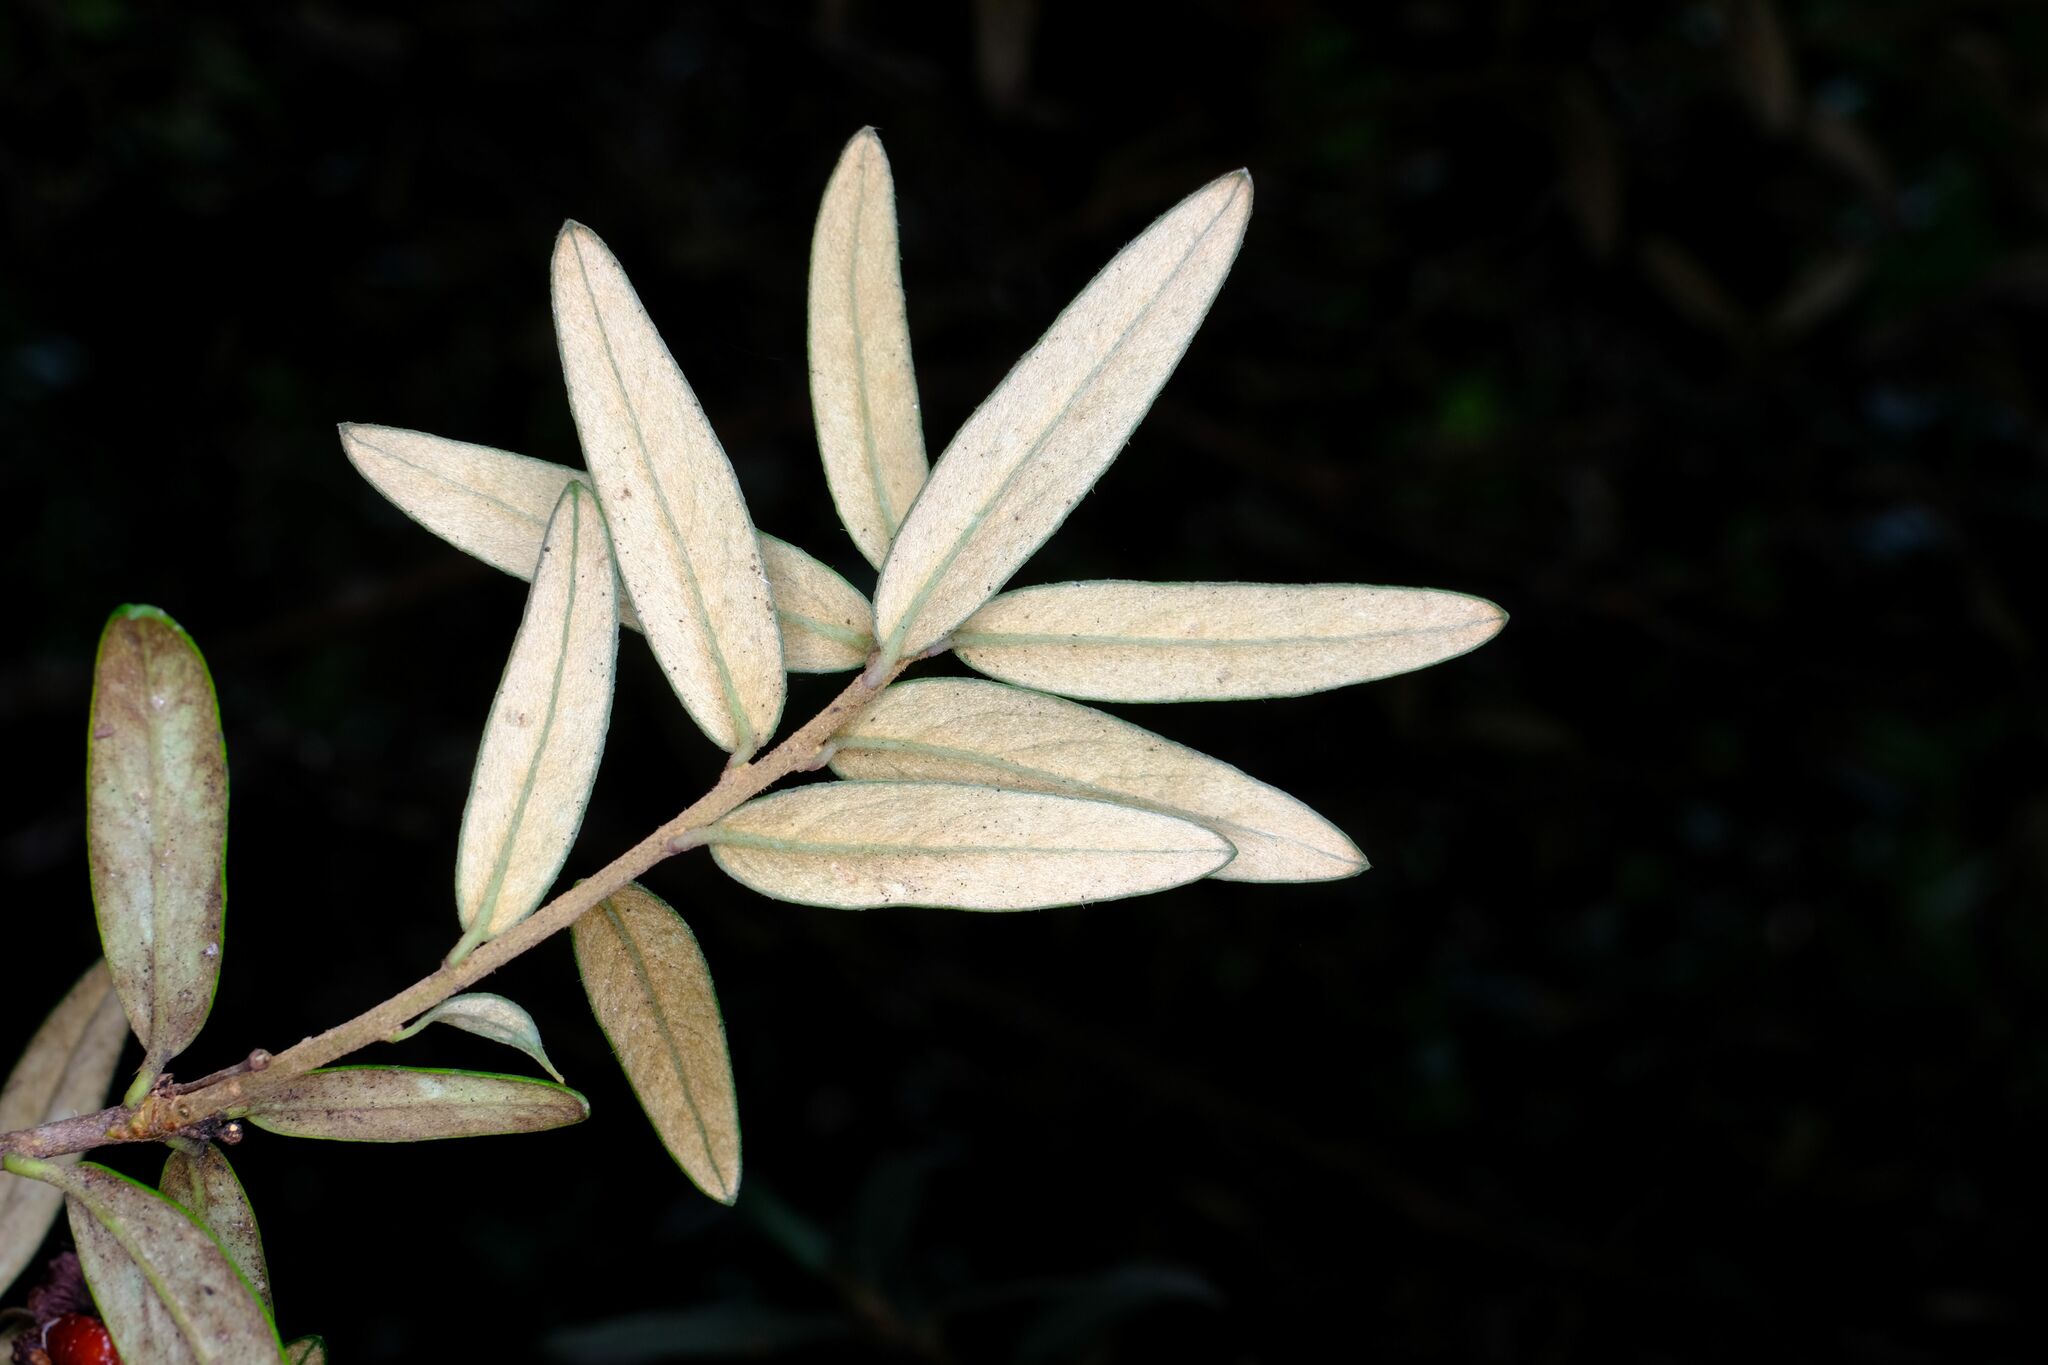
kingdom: Plantae
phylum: Tracheophyta
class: Magnoliopsida
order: Apiales
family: Pittosporaceae
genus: Pittosporum
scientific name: Pittosporum bicolor
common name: Tallowwood
